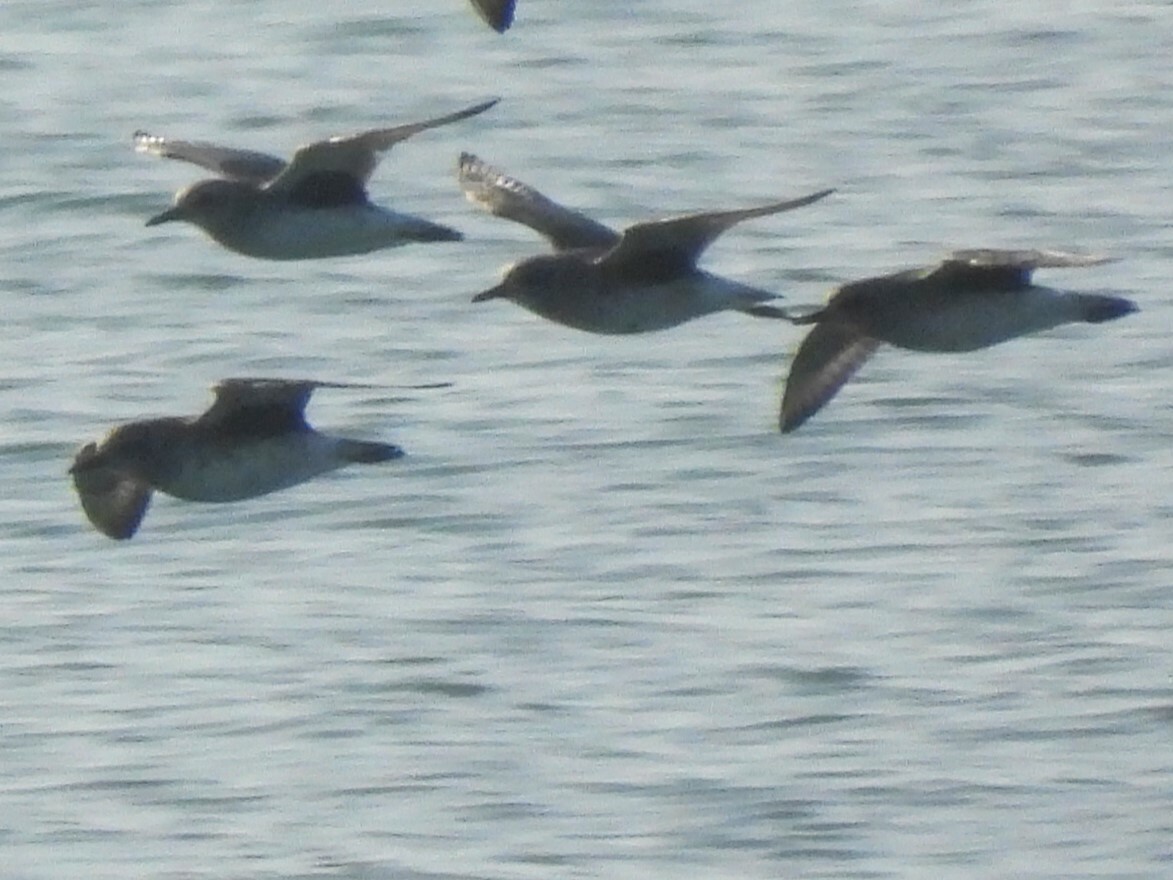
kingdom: Animalia
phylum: Chordata
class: Aves
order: Charadriiformes
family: Charadriidae
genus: Pluvialis
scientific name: Pluvialis squatarola
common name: Grey plover
